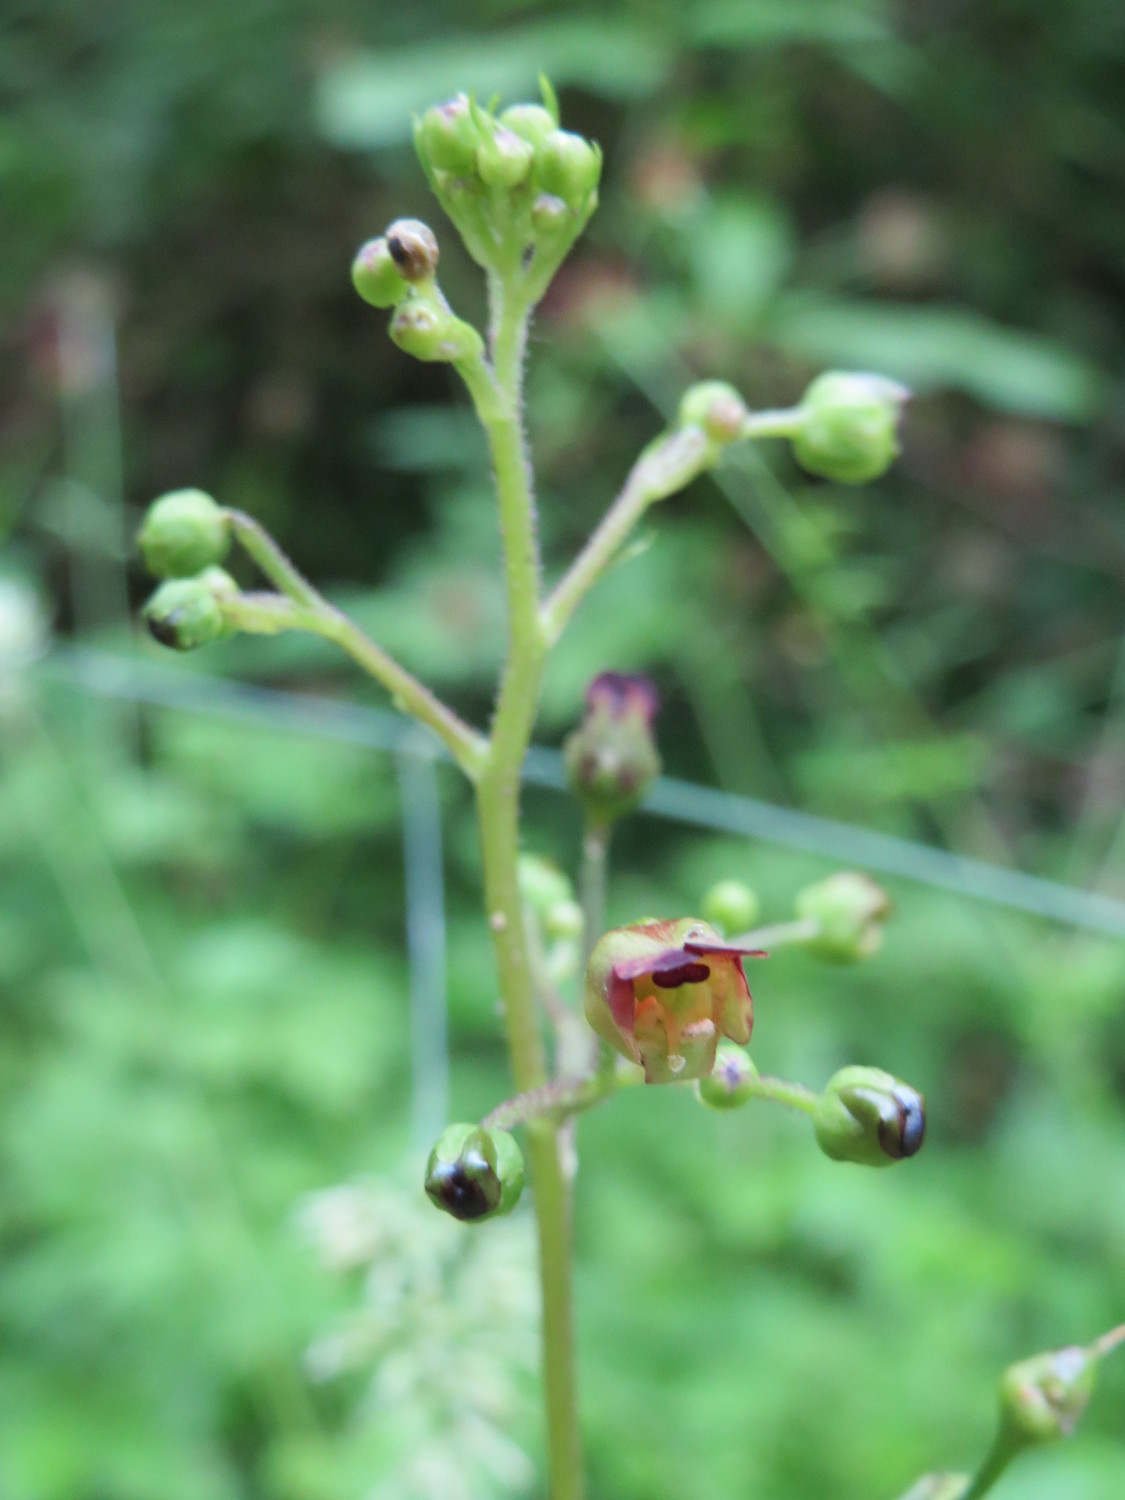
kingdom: Plantae
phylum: Tracheophyta
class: Magnoliopsida
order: Lamiales
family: Scrophulariaceae
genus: Scrophularia
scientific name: Scrophularia nodosa
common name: Common figwort
